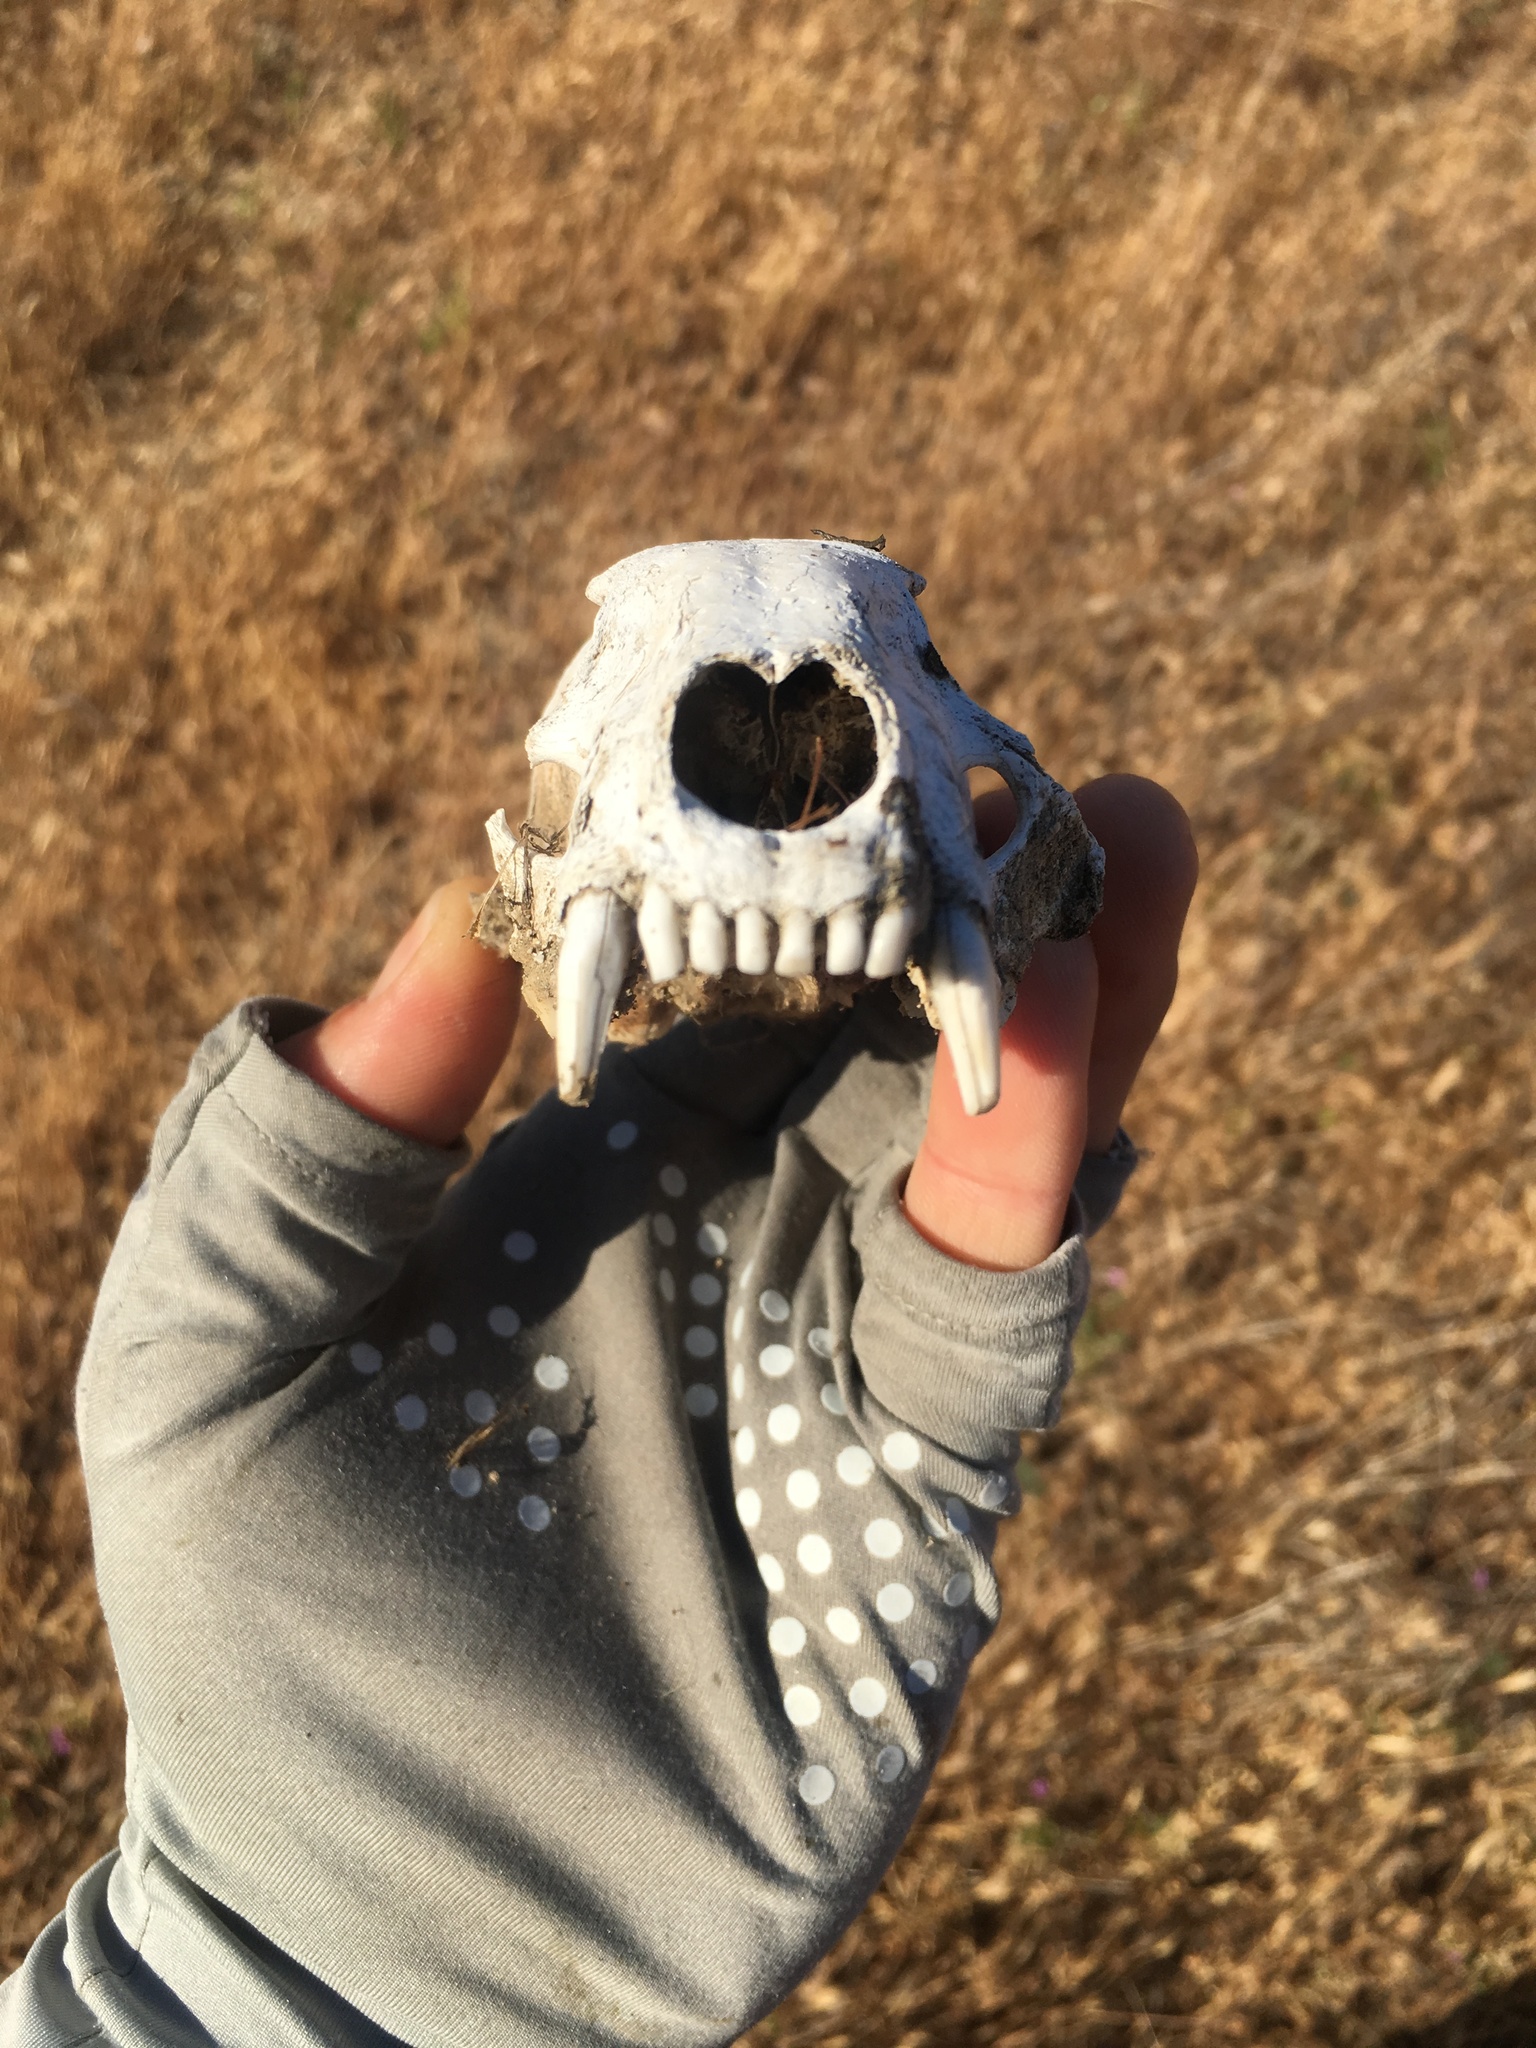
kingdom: Animalia
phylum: Chordata
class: Mammalia
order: Carnivora
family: Procyonidae
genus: Procyon
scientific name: Procyon lotor
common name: Raccoon
